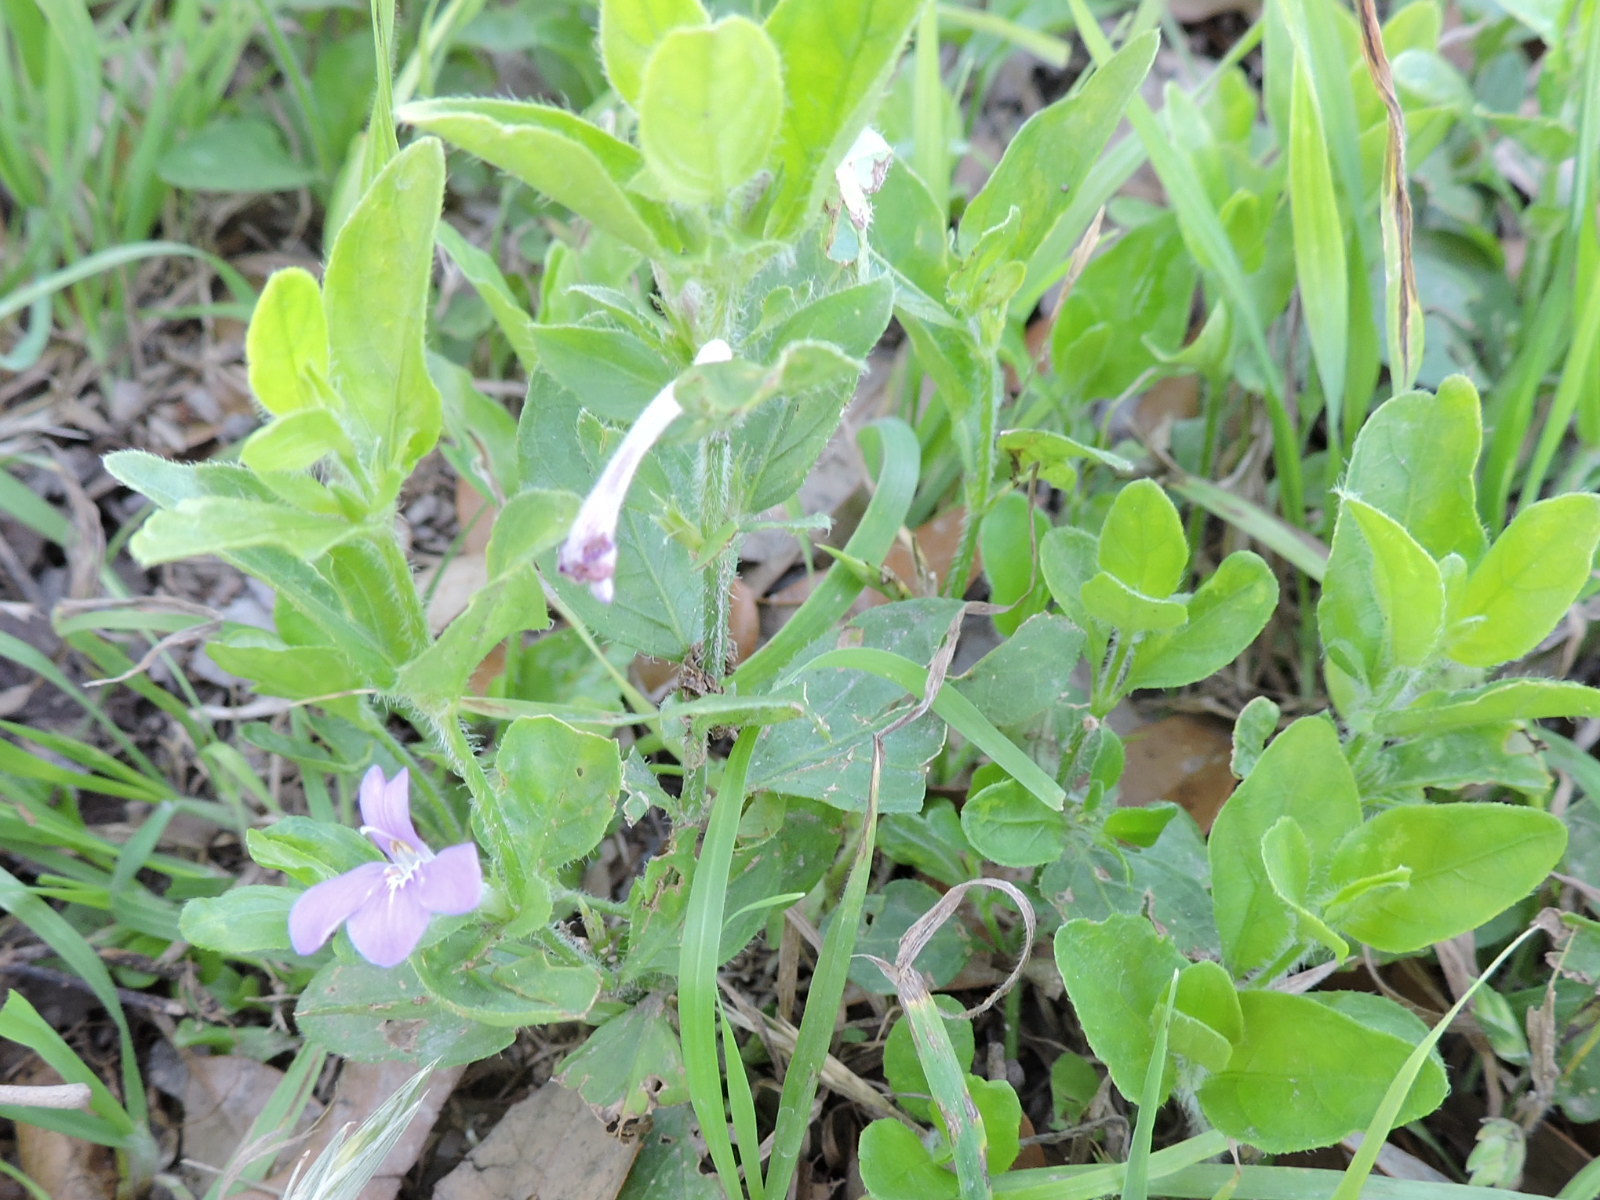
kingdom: Plantae
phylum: Tracheophyta
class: Magnoliopsida
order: Lamiales
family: Acanthaceae
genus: Justicia
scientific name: Justicia pilosella
